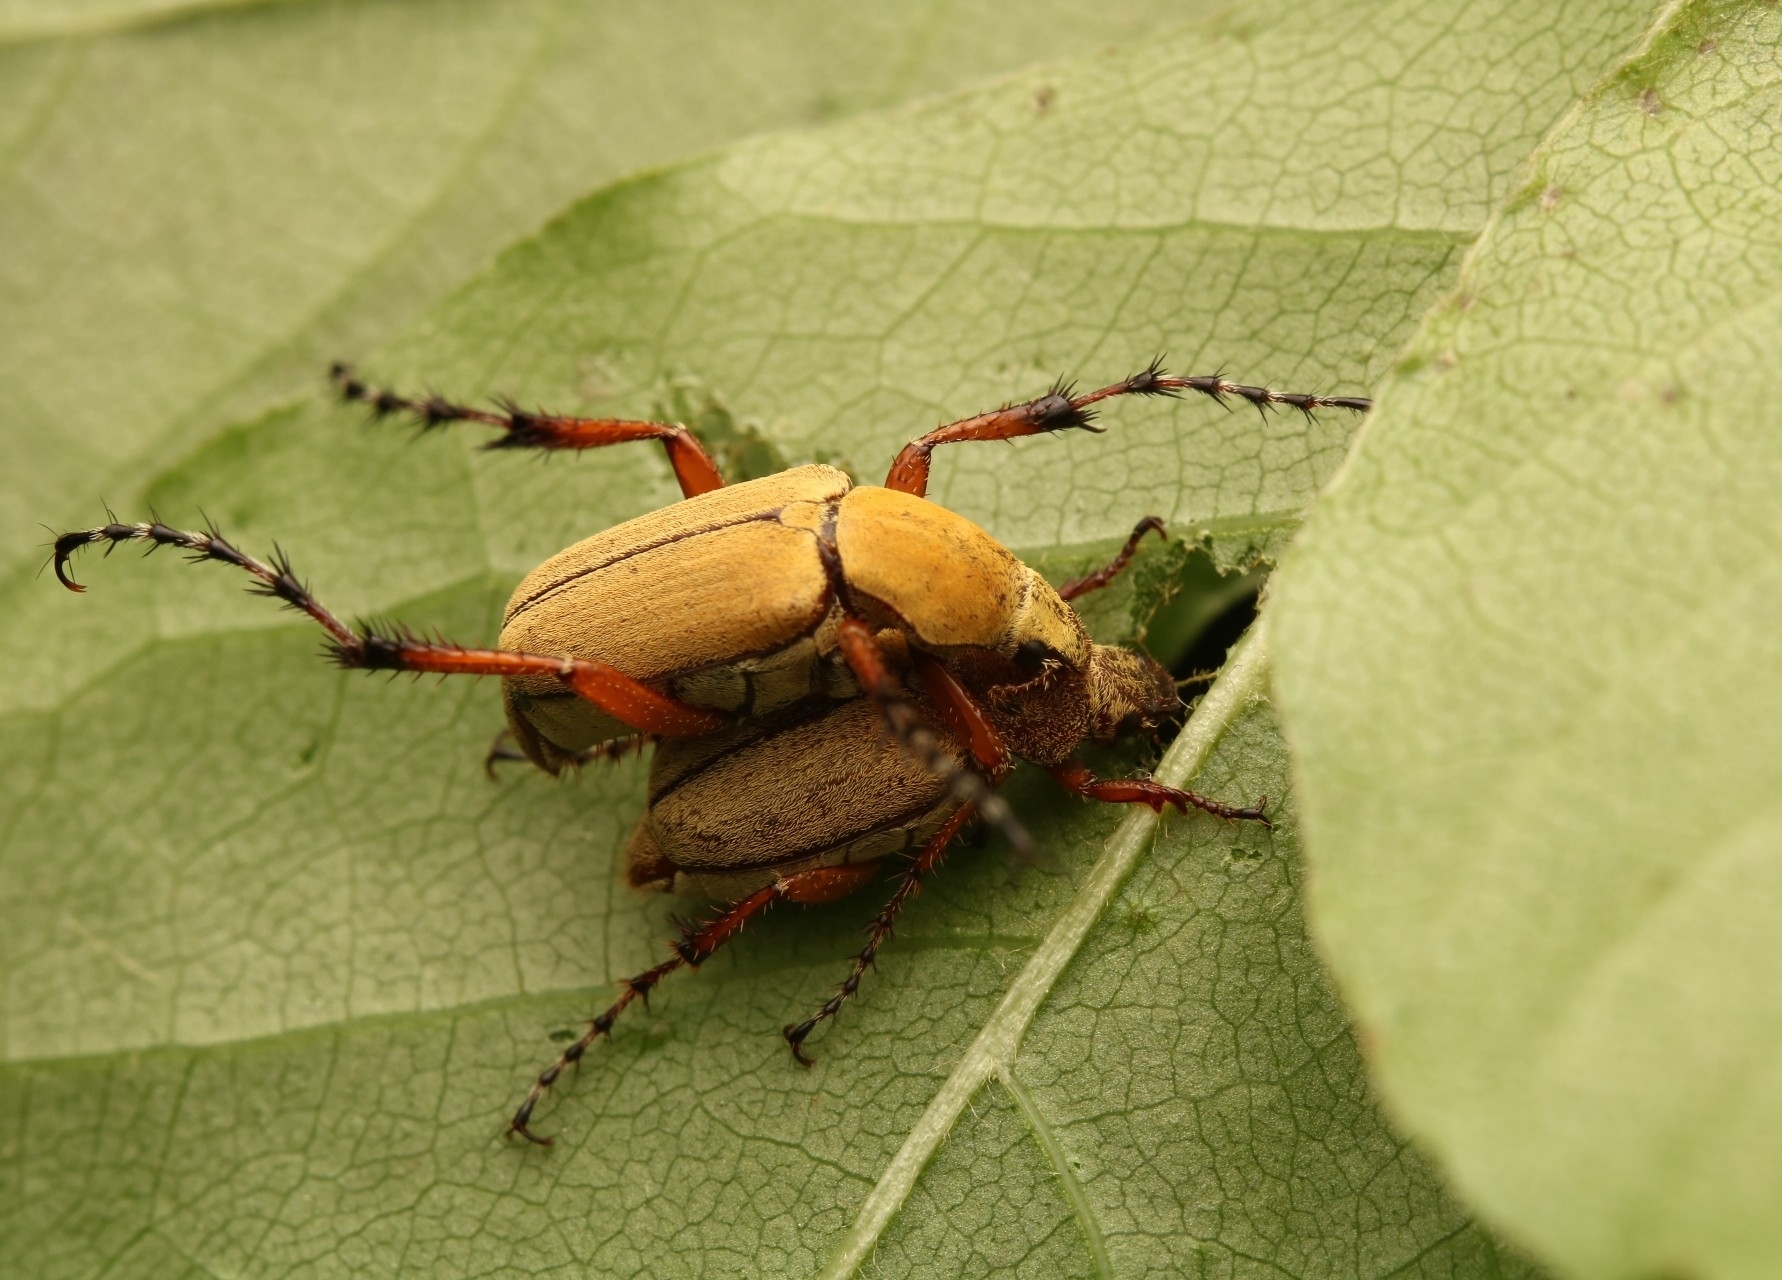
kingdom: Animalia
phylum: Arthropoda
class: Insecta
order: Coleoptera
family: Scarabaeidae
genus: Macrodactylus
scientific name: Macrodactylus subspinosus
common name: American rose chafer
